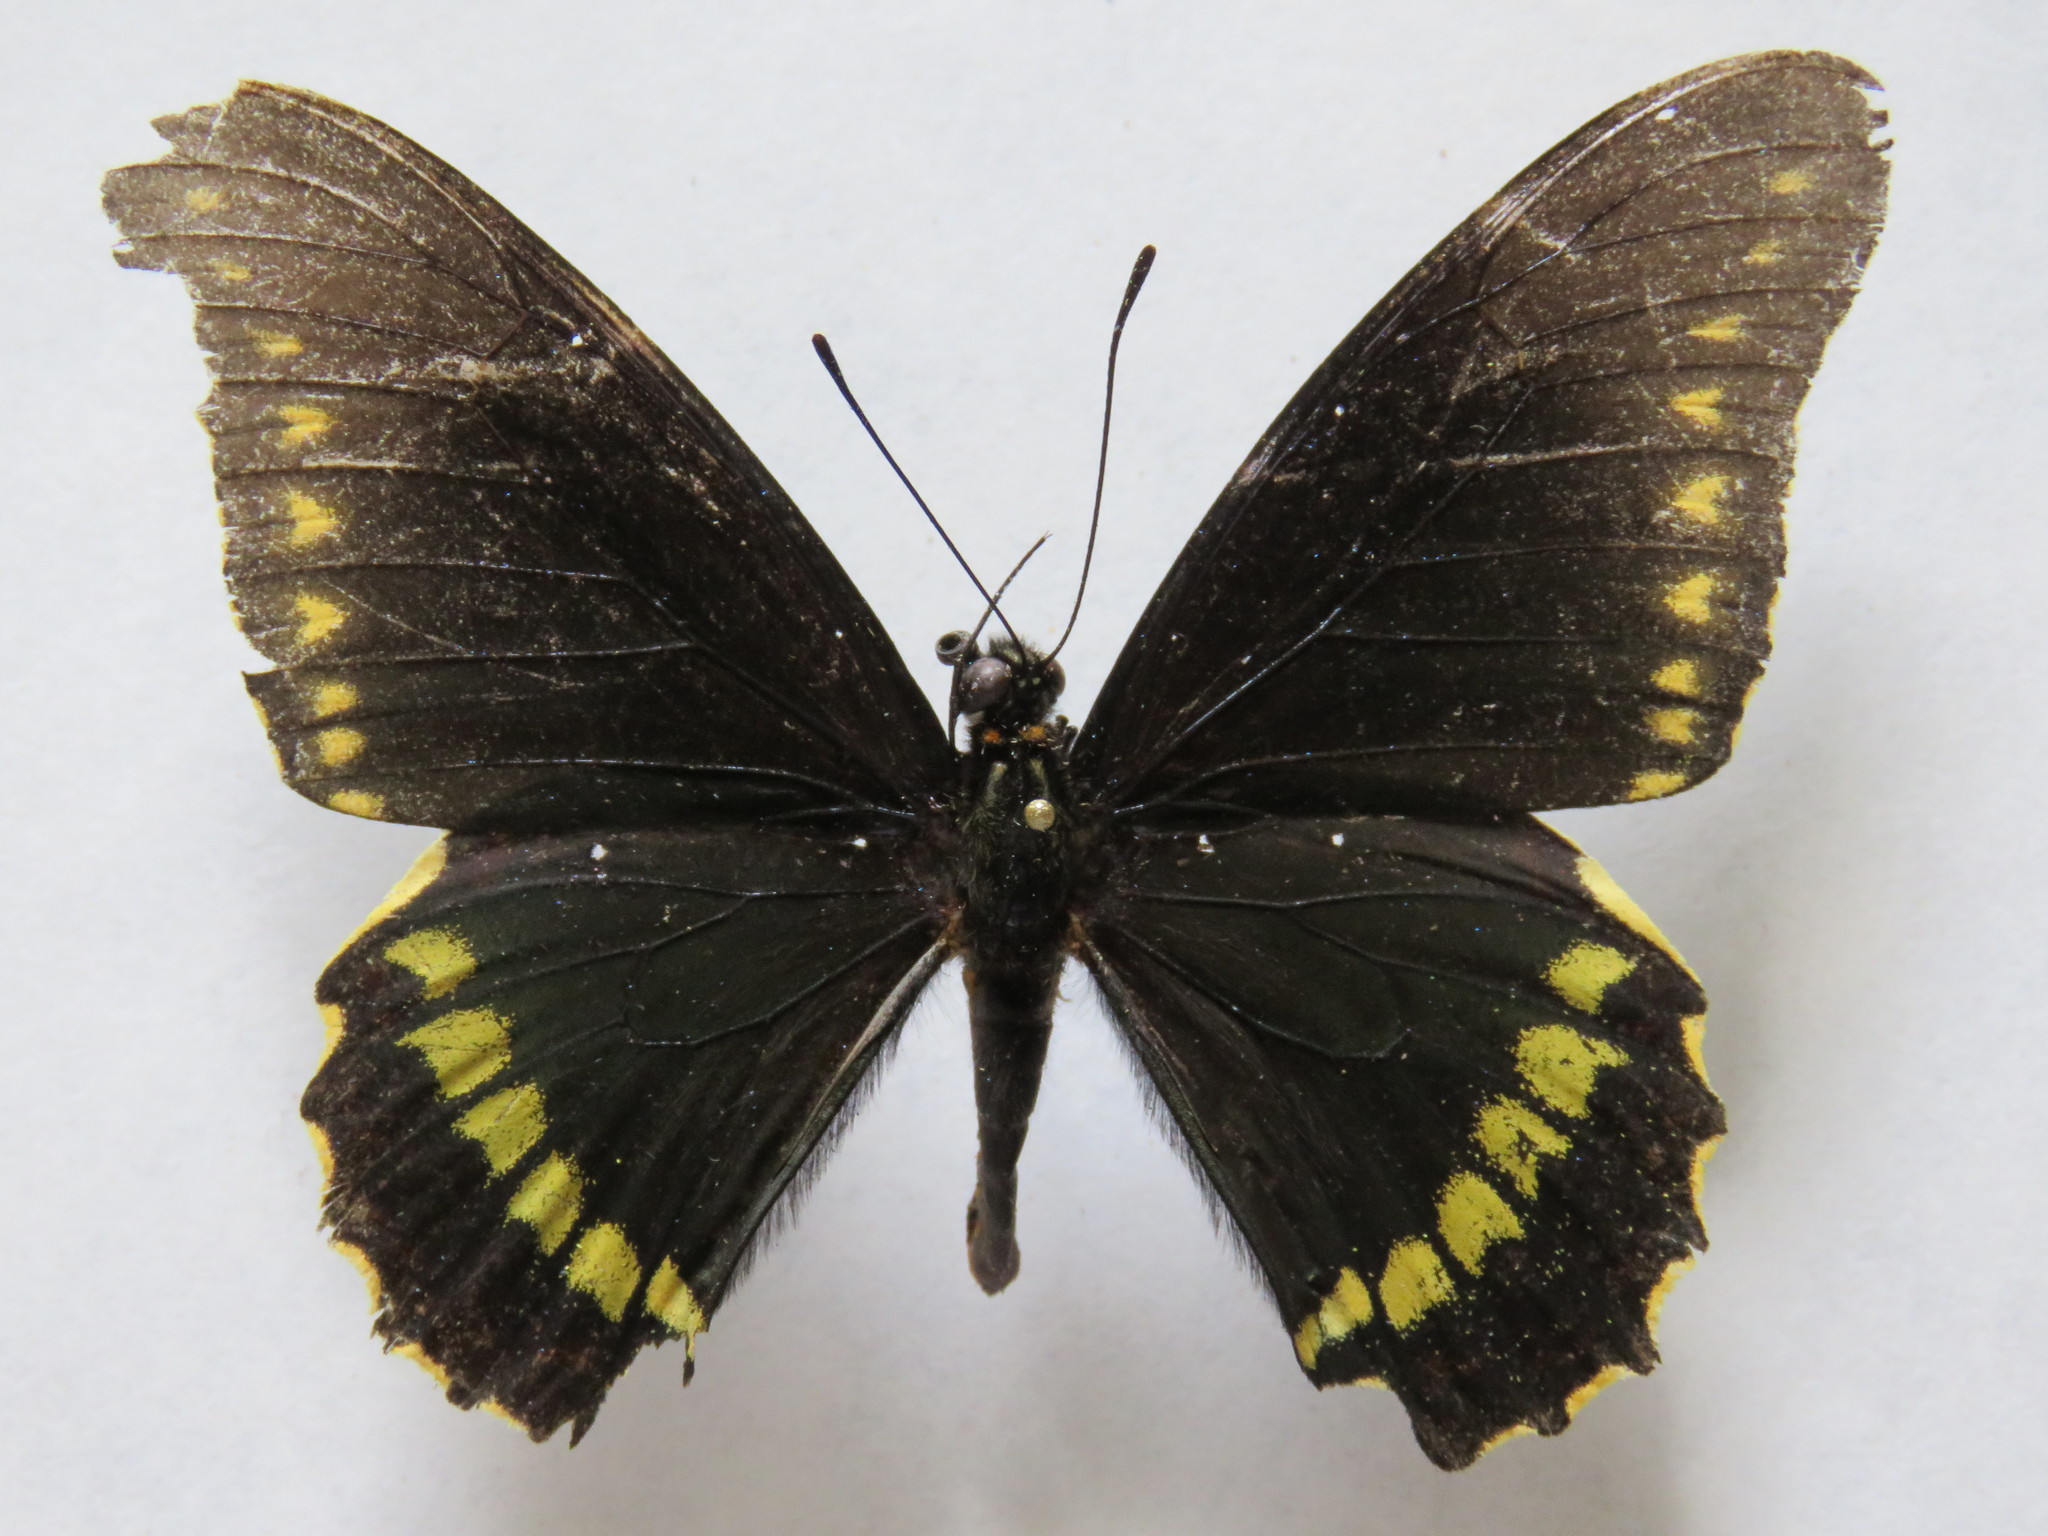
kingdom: Animalia
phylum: Arthropoda
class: Insecta
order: Lepidoptera
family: Papilionidae
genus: Battus
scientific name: Battus polydamas
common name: Polydamas swallowtail
